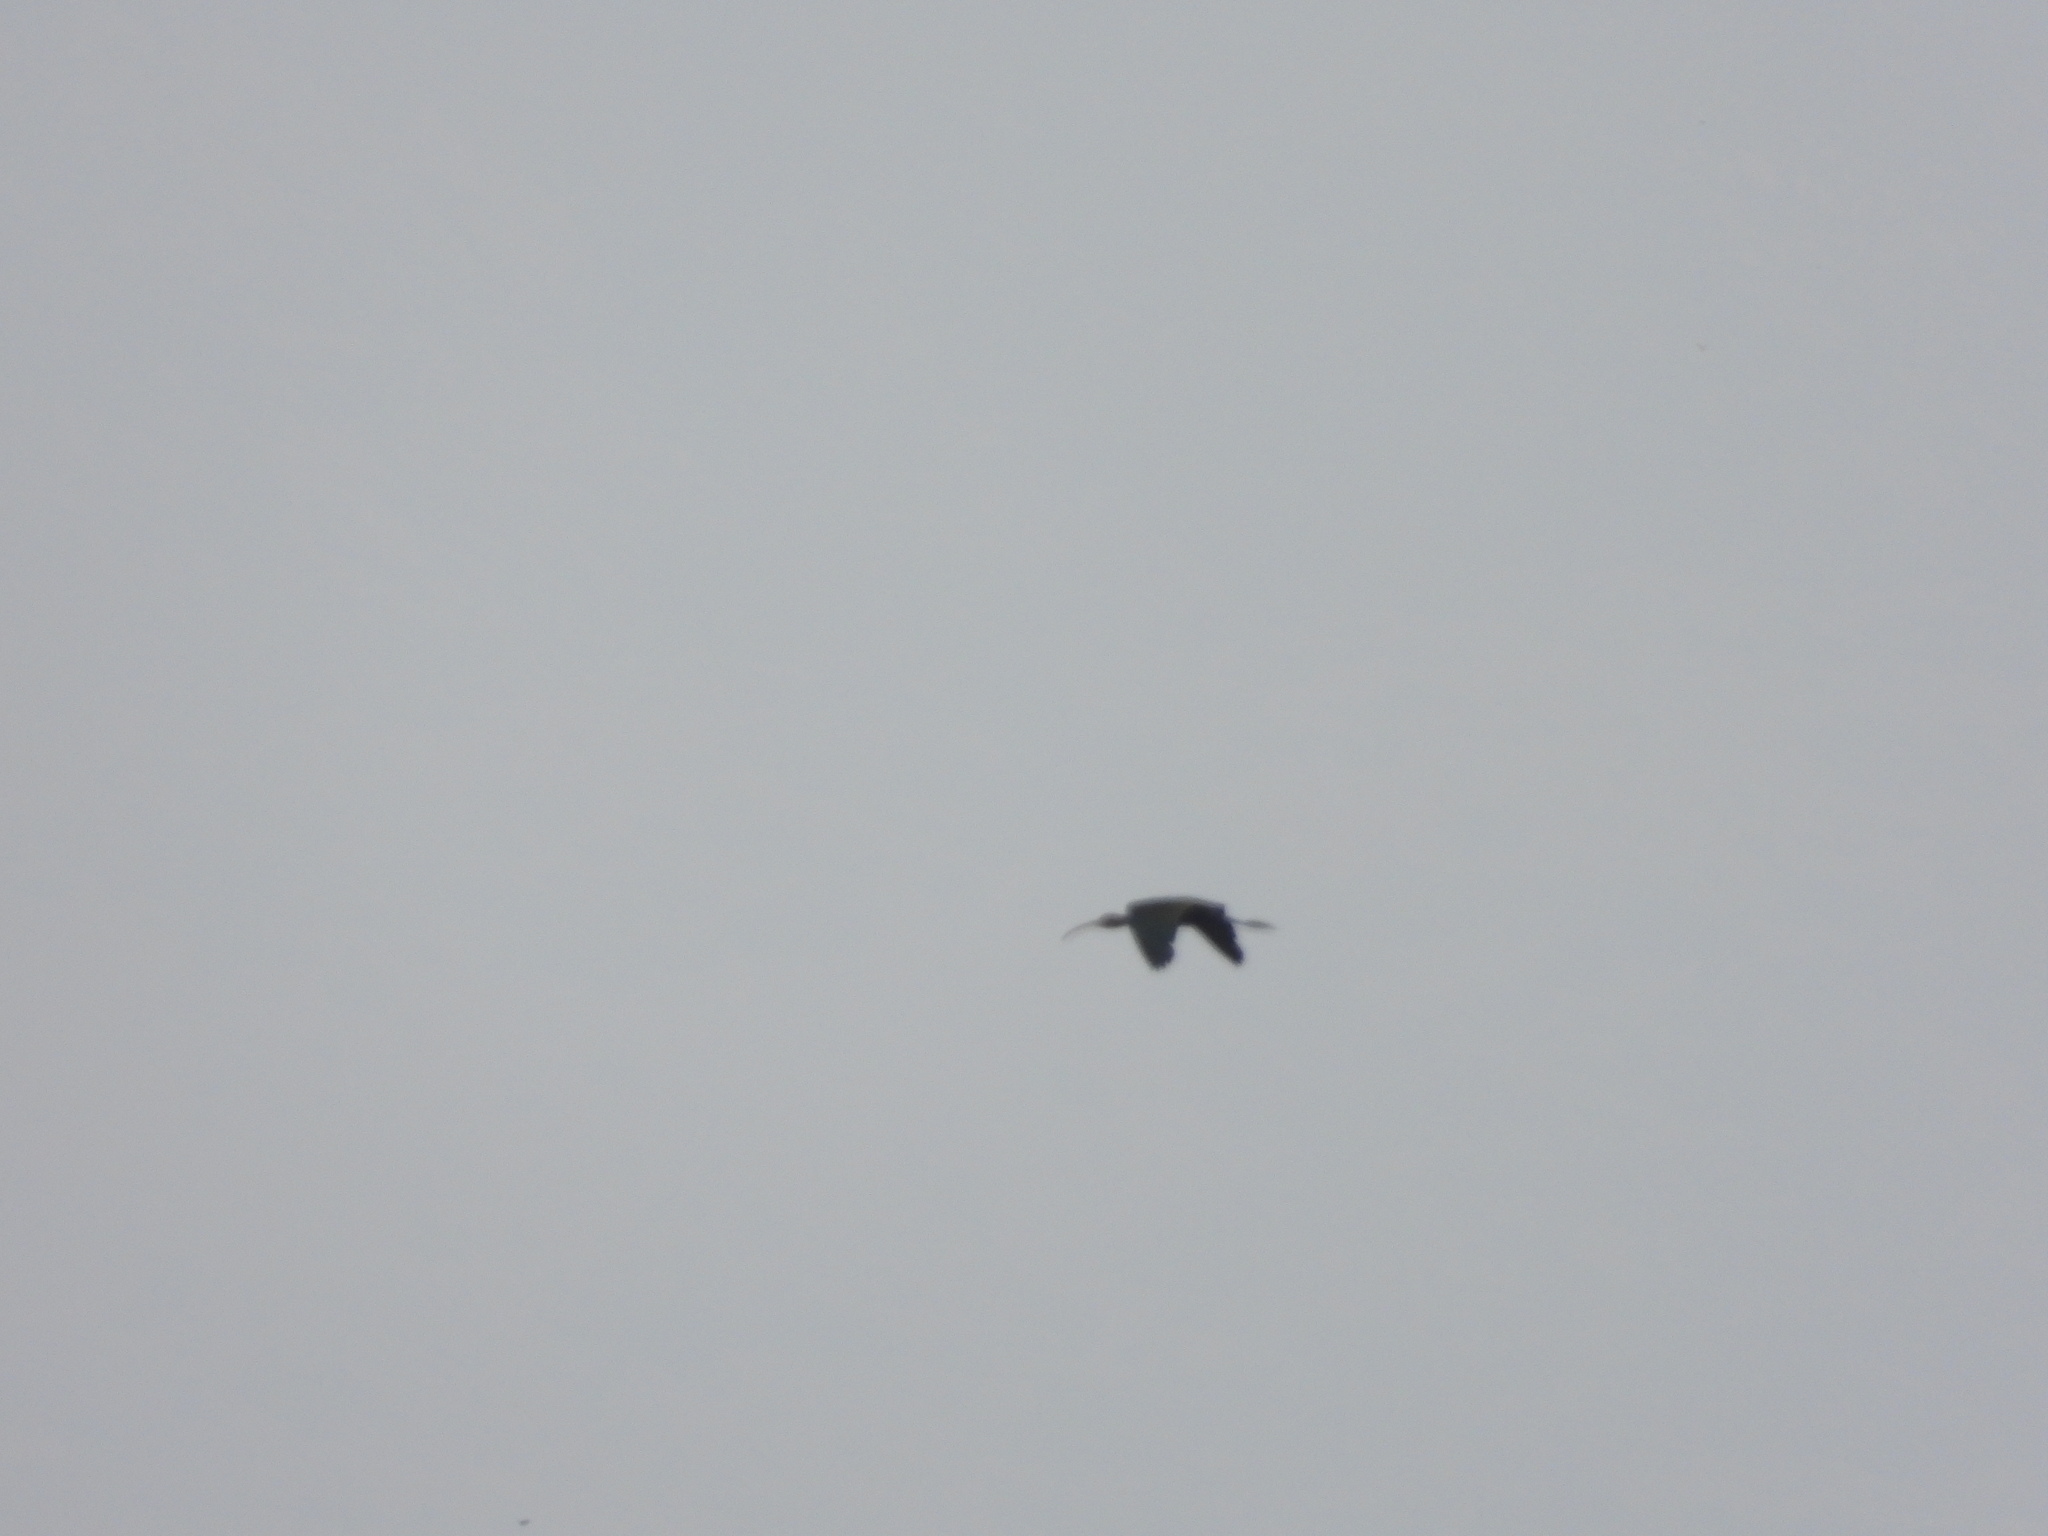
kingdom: Animalia
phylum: Chordata
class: Aves
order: Pelecaniformes
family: Threskiornithidae
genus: Plegadis
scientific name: Plegadis chihi
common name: White-faced ibis
